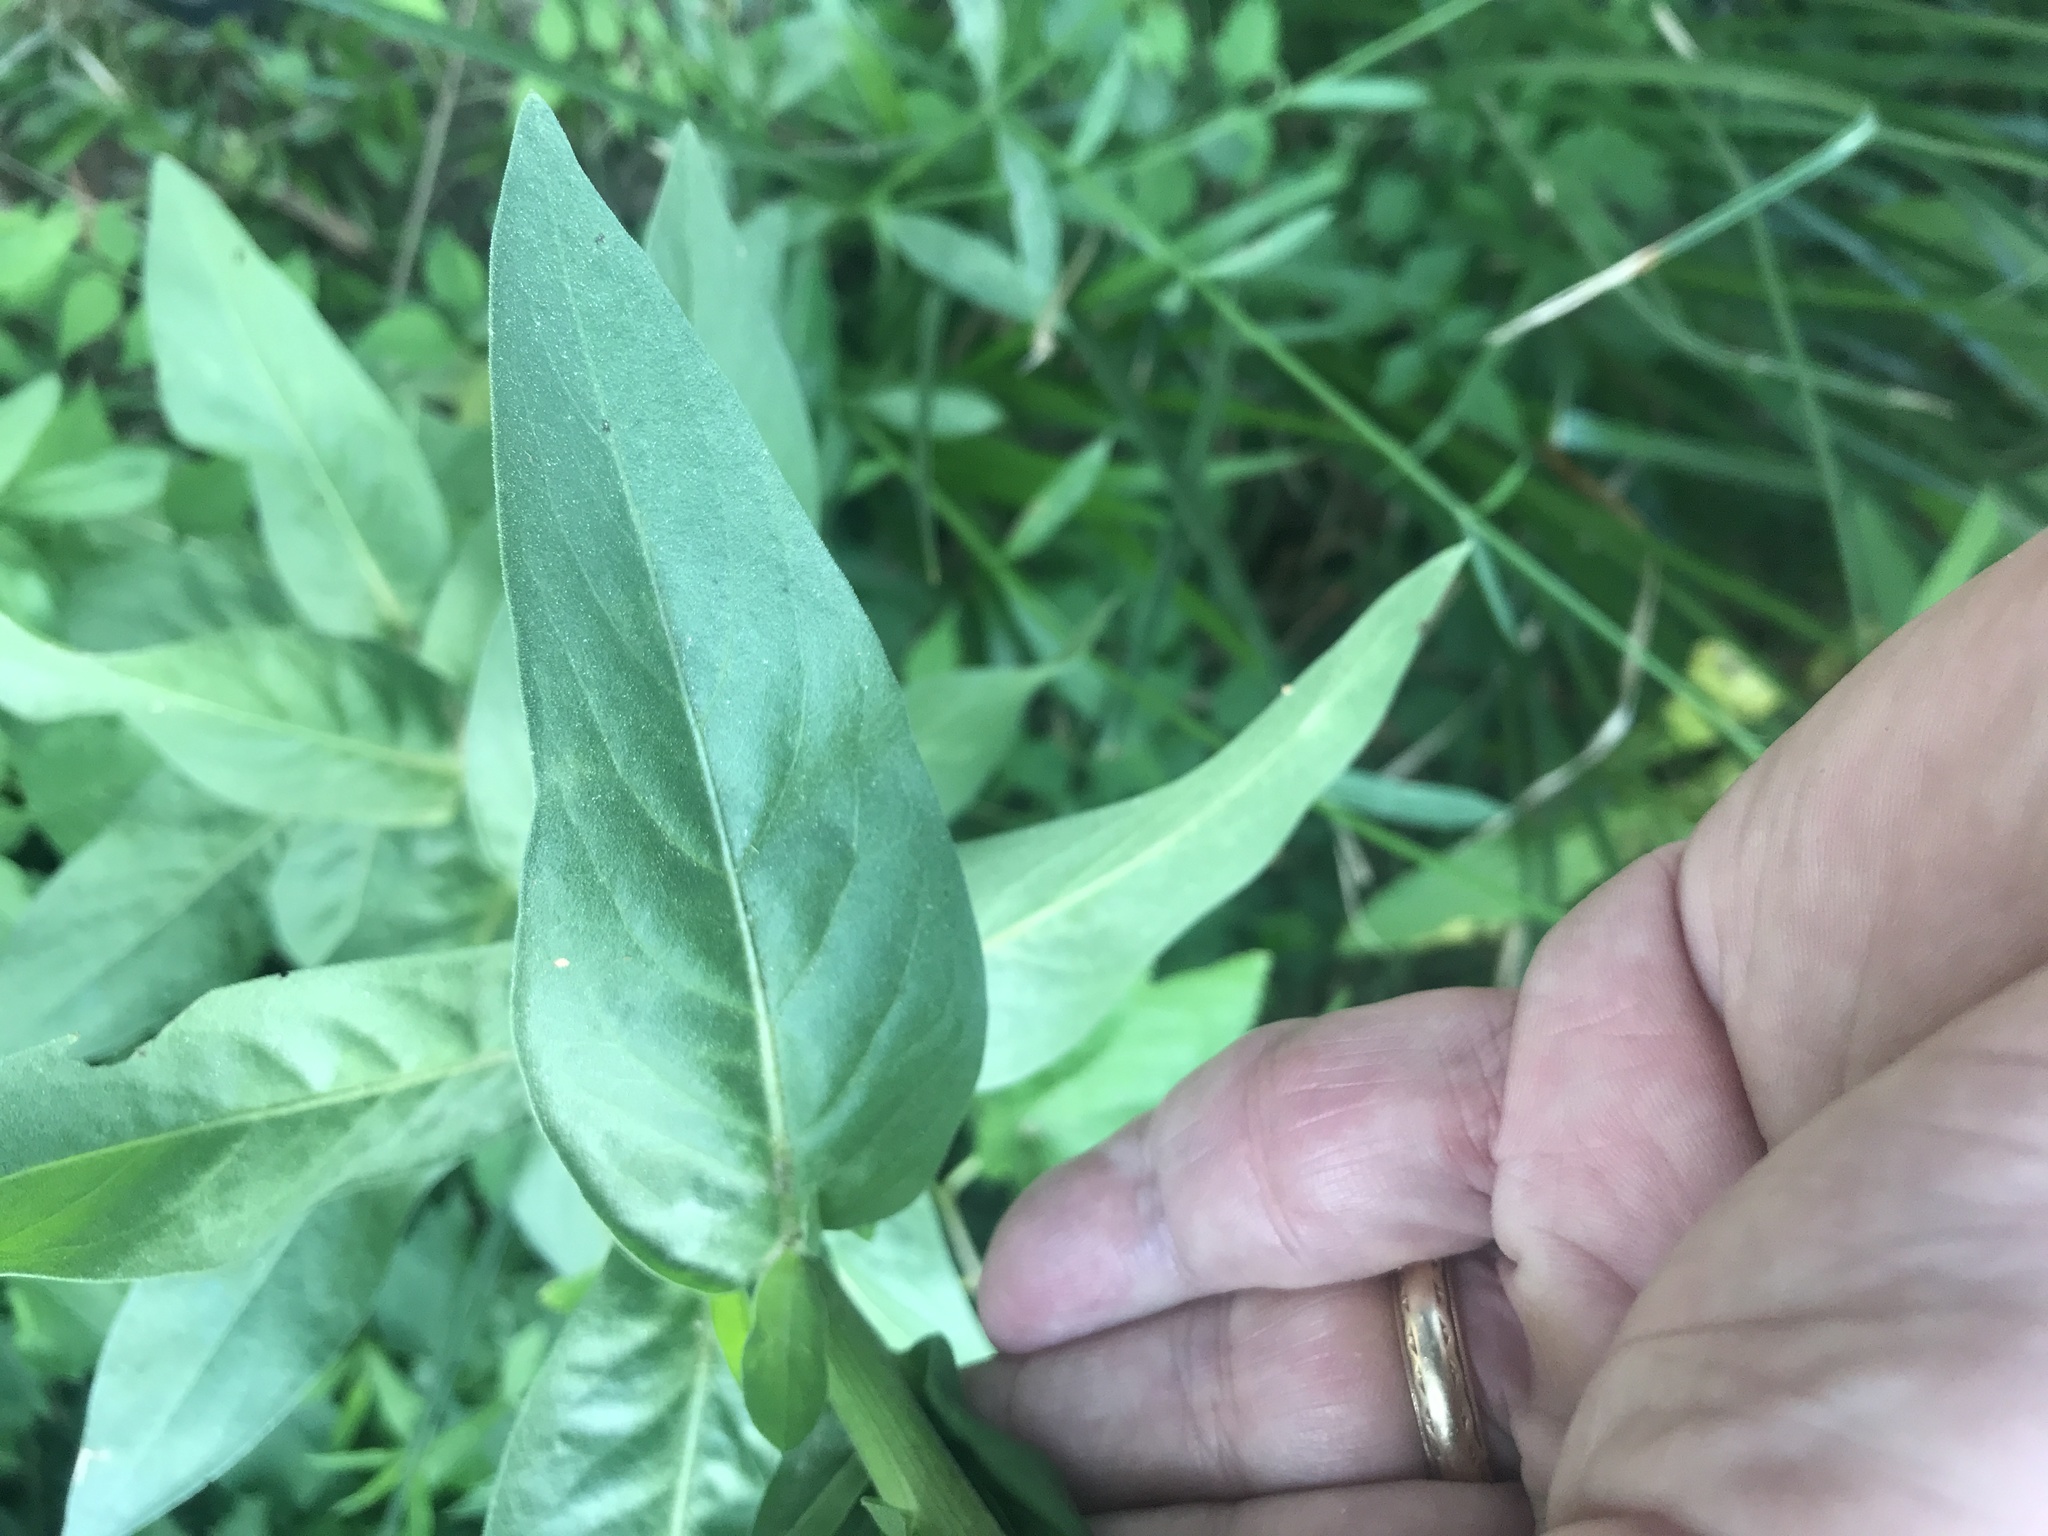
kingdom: Plantae
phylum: Tracheophyta
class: Magnoliopsida
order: Asterales
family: Asteraceae
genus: Plectocephalus
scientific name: Plectocephalus americanus
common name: American basket-flower
